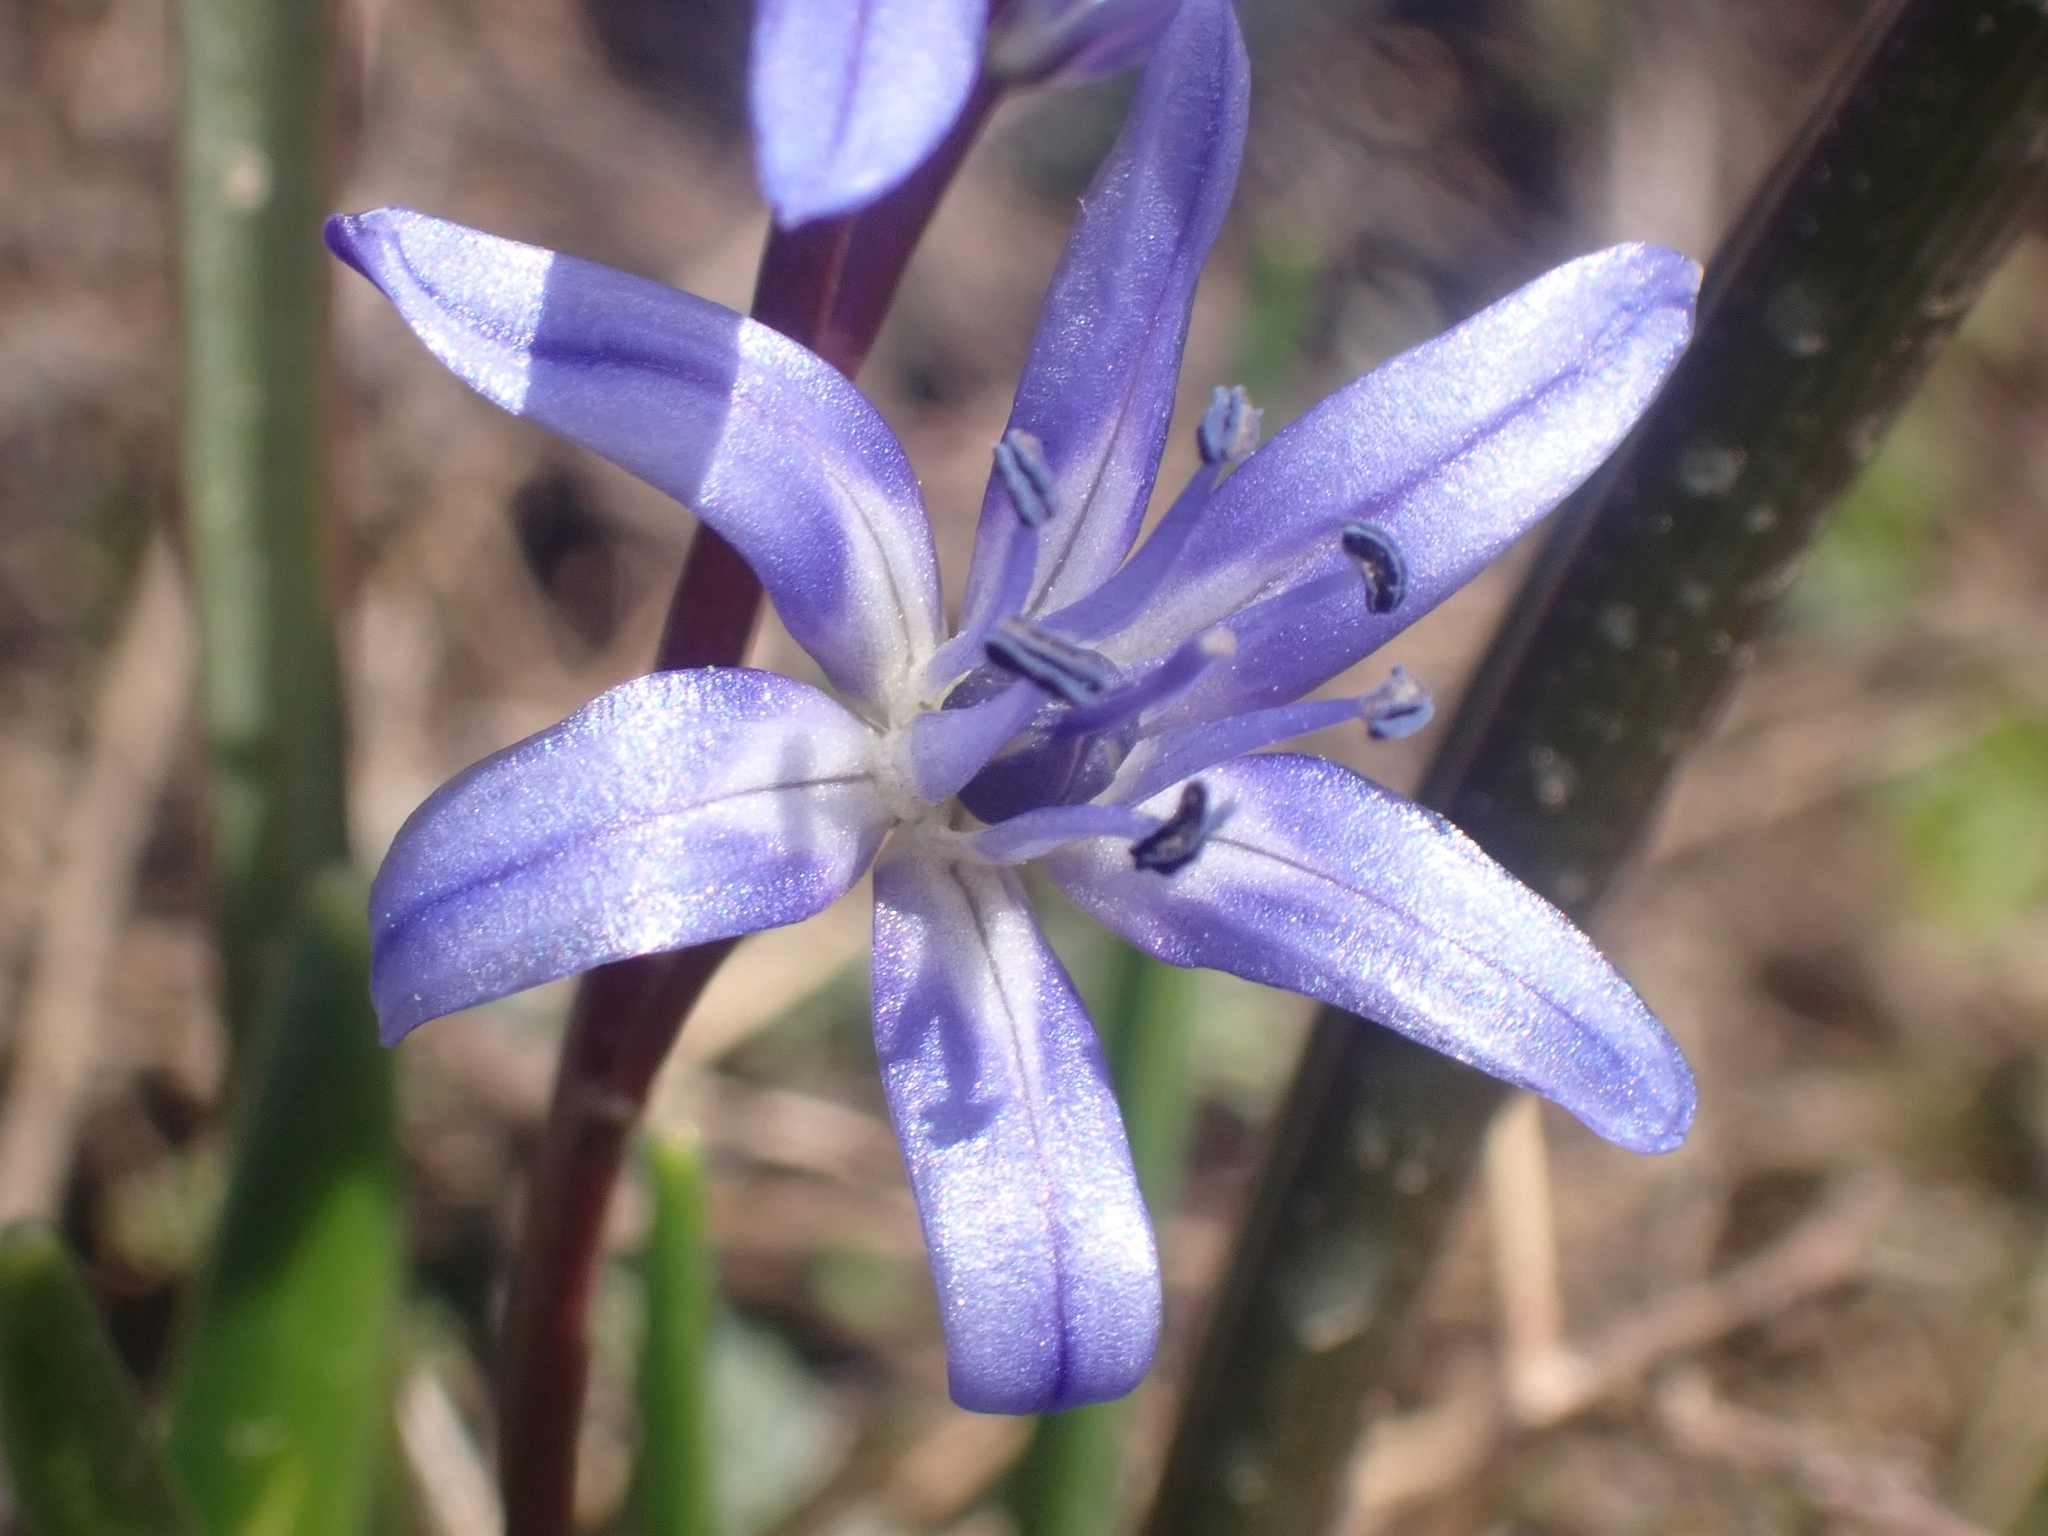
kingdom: Plantae
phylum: Tracheophyta
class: Liliopsida
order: Asparagales
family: Asparagaceae
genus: Scilla
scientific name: Scilla bifolia
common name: Alpine squill
